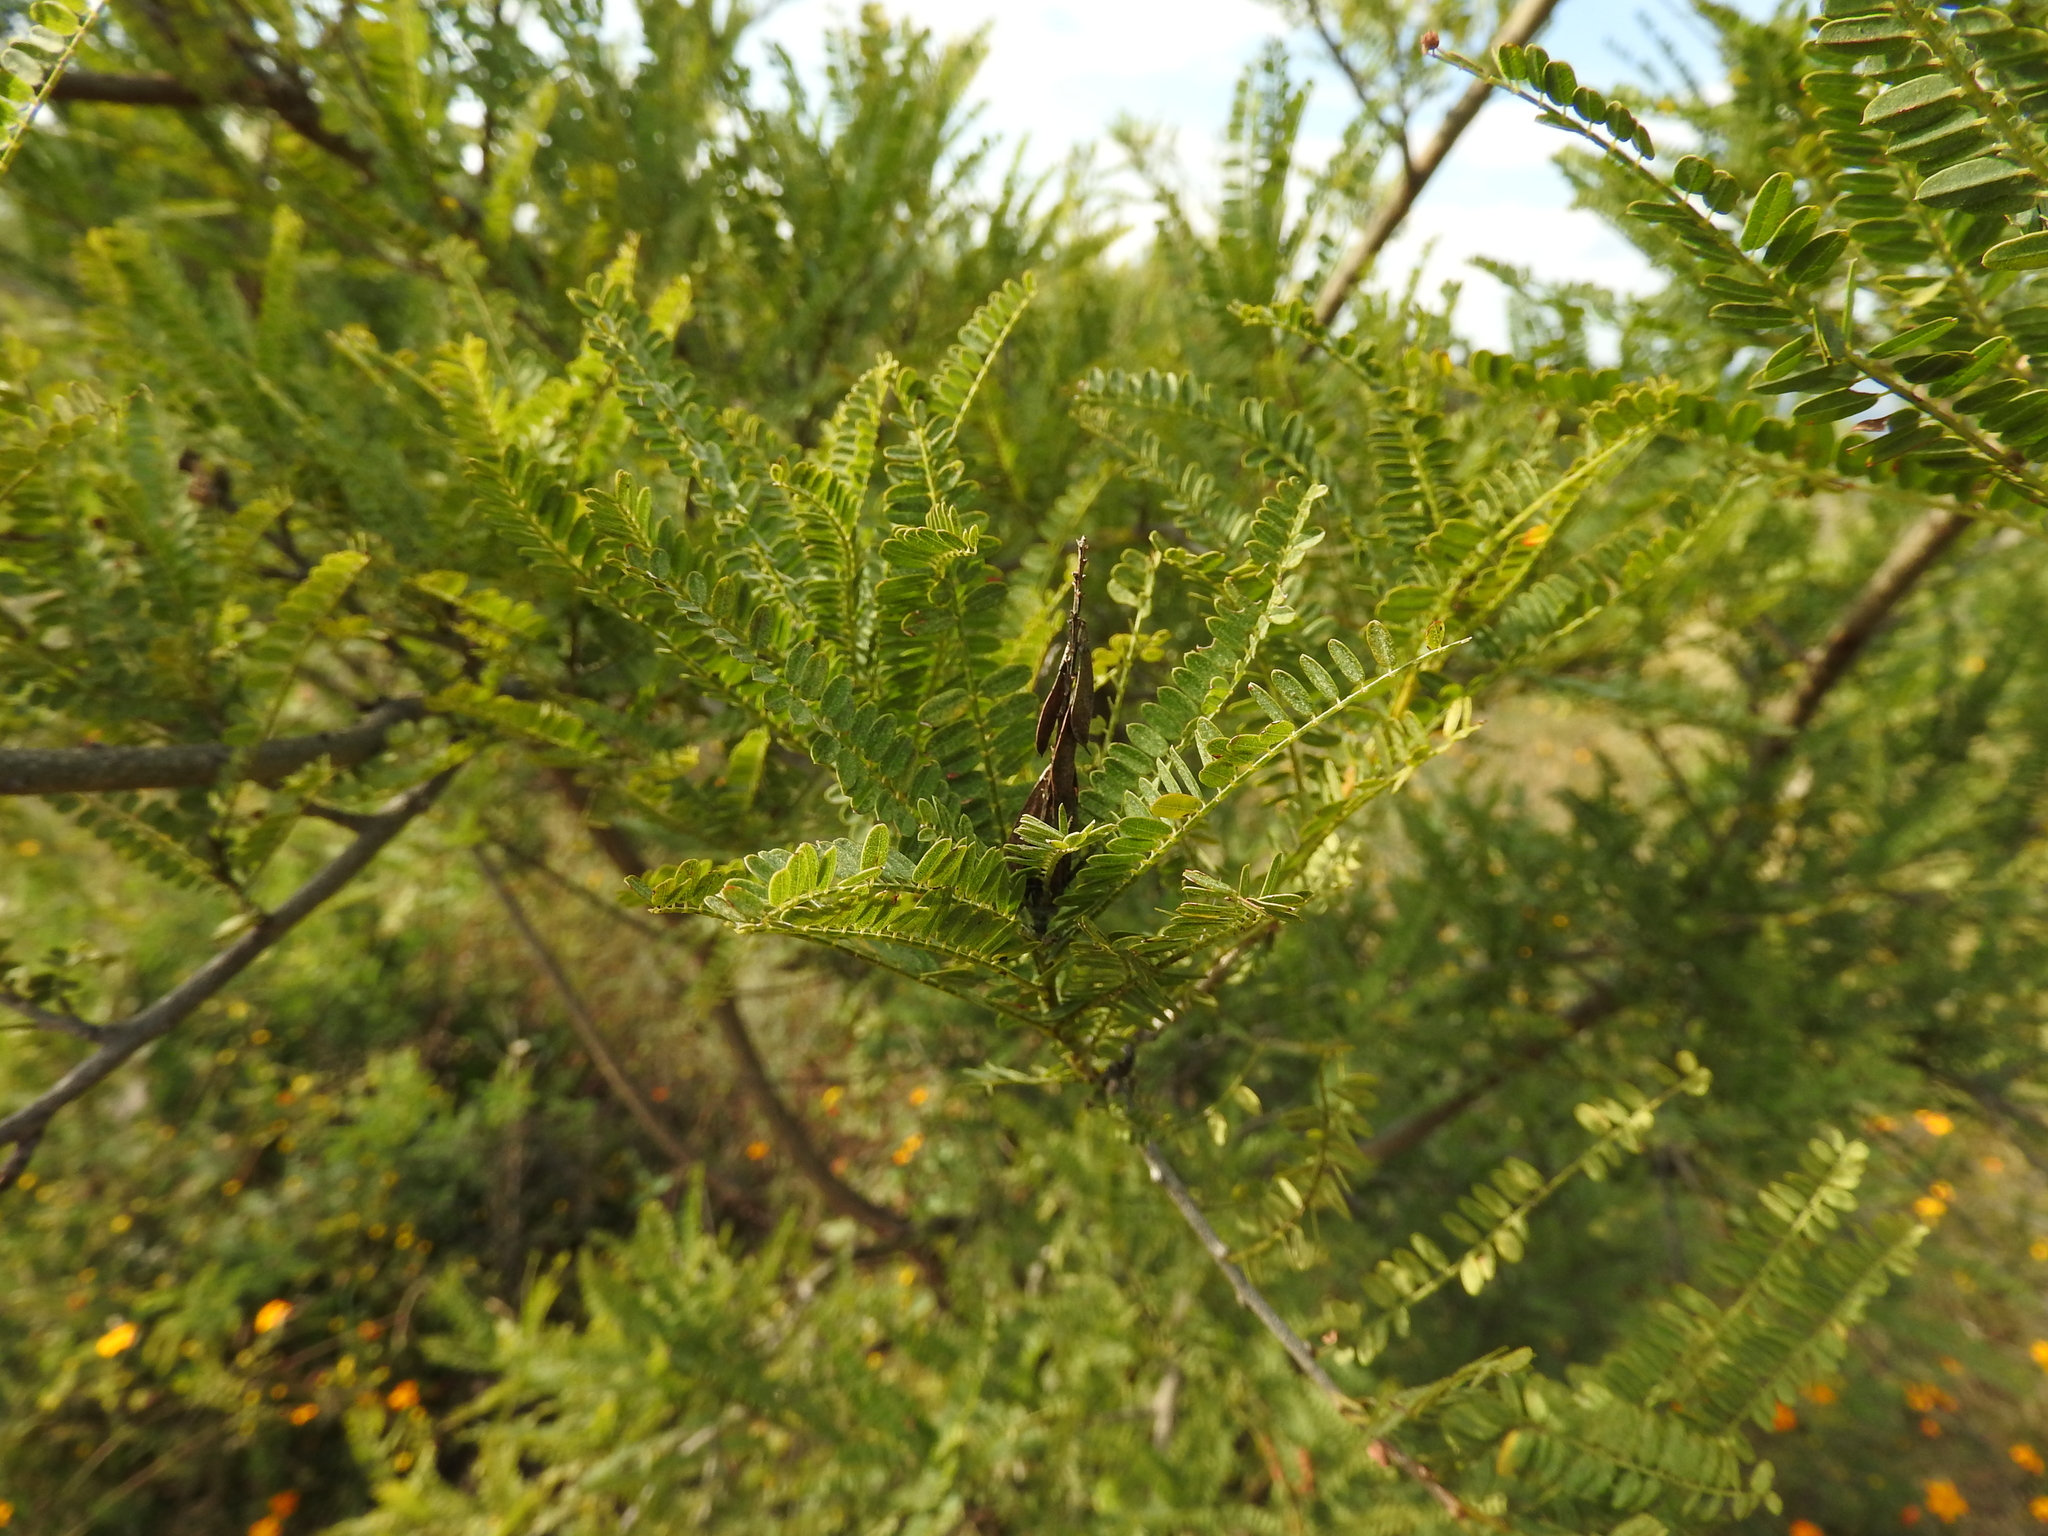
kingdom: Plantae
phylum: Tracheophyta
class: Magnoliopsida
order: Fabales
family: Fabaceae
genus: Eysenhardtia
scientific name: Eysenhardtia polystachya
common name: Kidneywood
